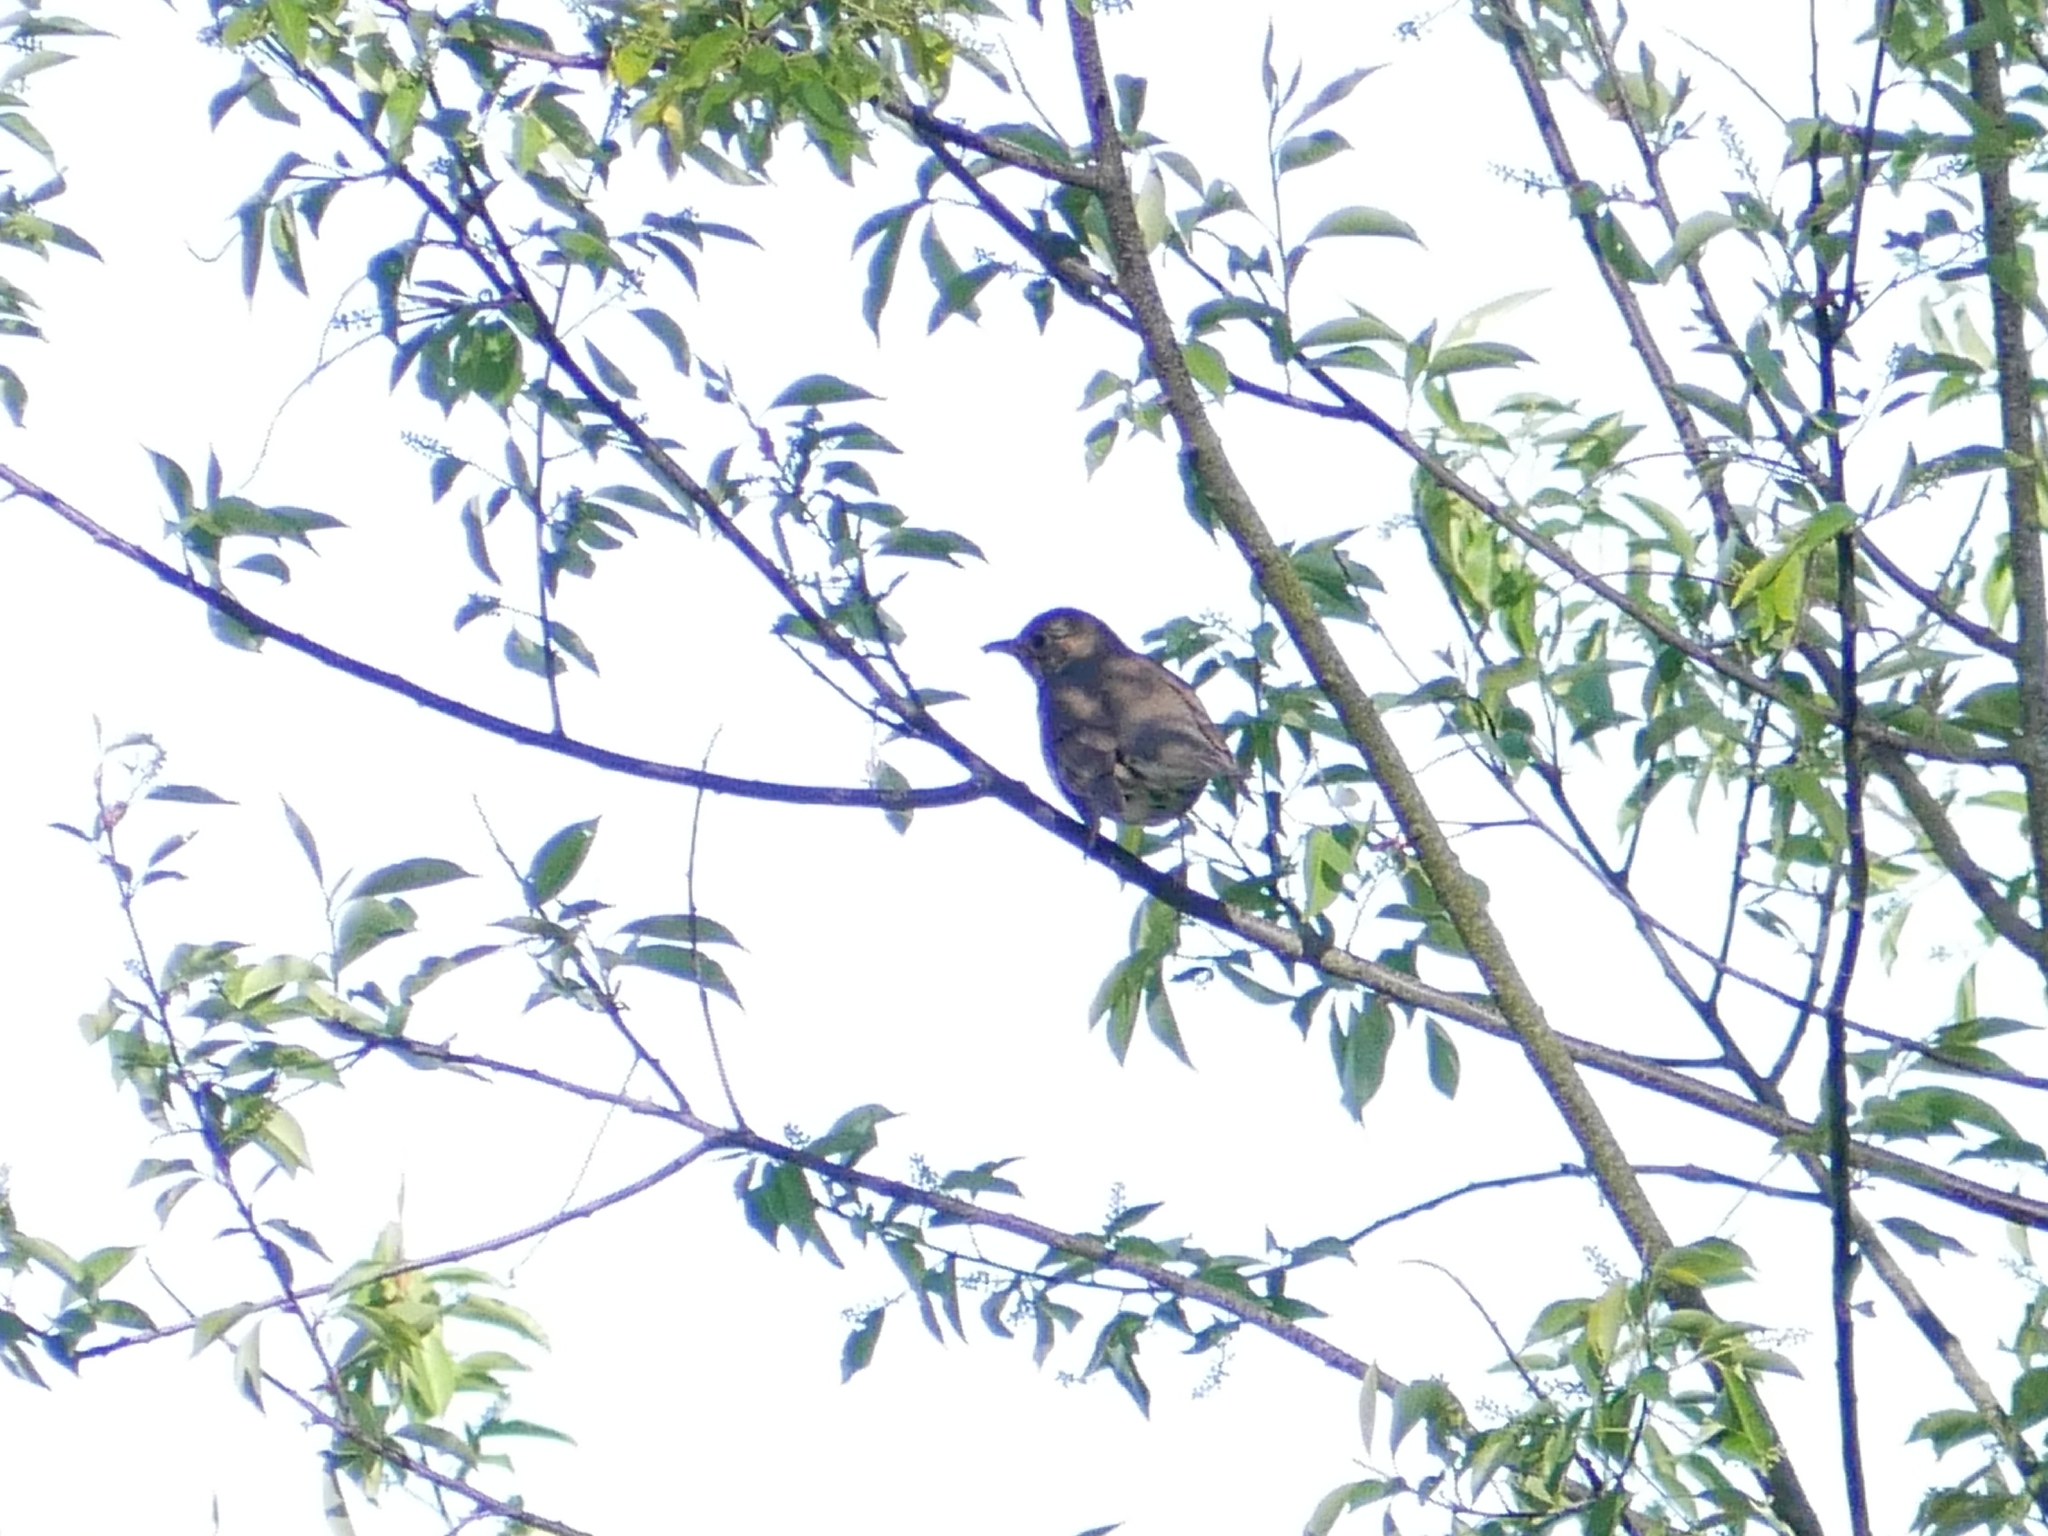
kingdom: Animalia
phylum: Chordata
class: Aves
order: Passeriformes
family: Turdidae
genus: Turdus
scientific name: Turdus philomelos
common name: Song thrush
